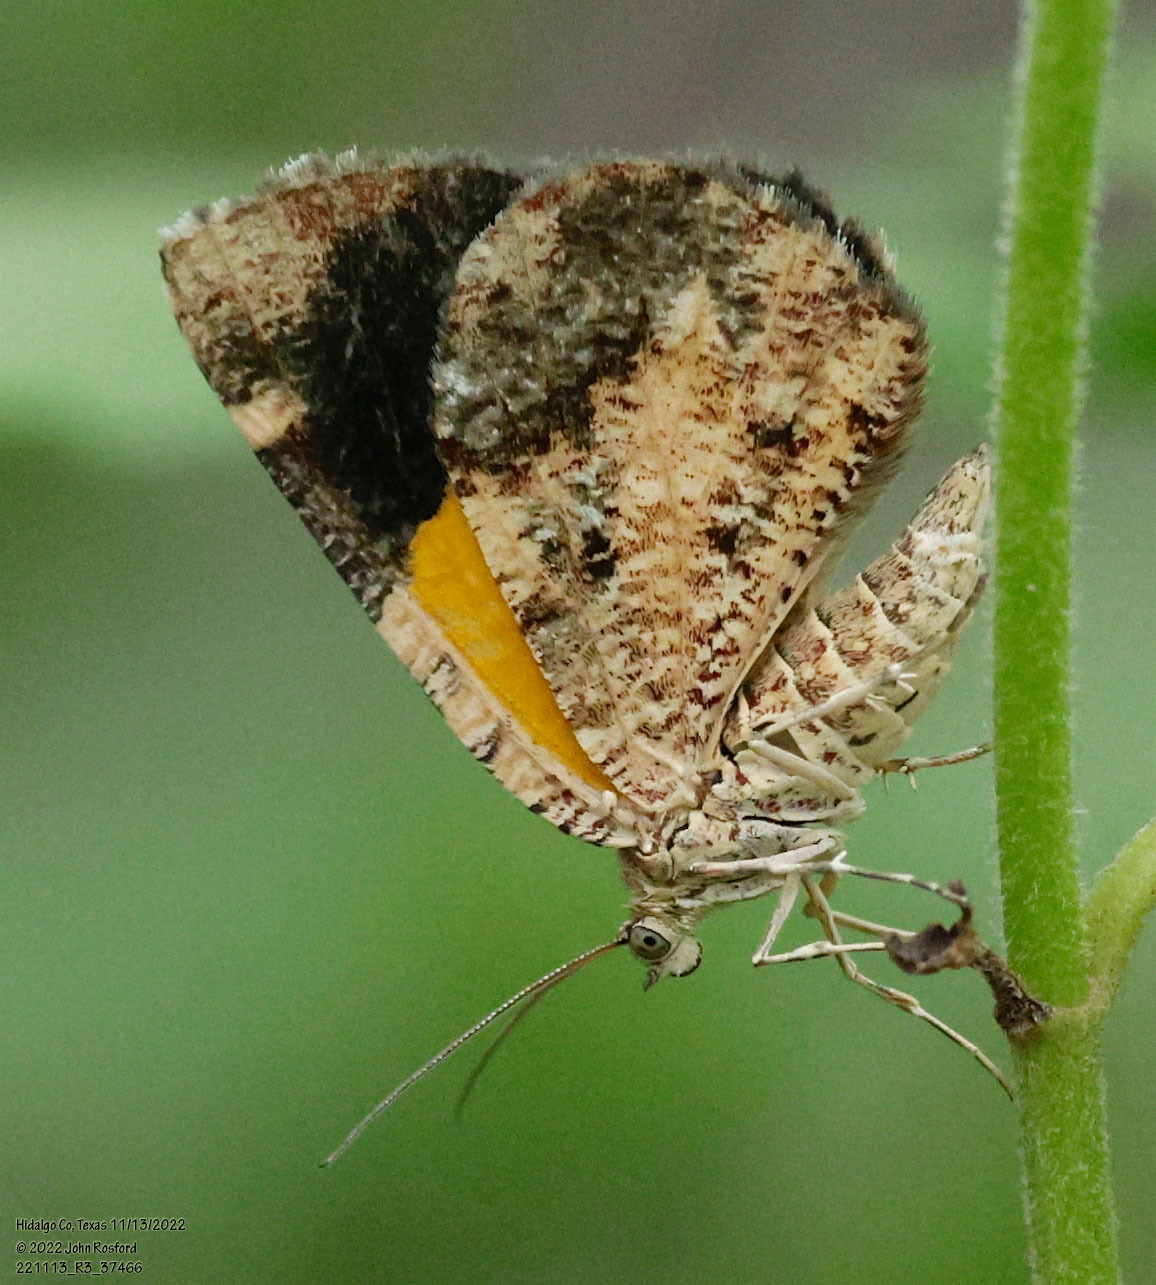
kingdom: Animalia
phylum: Arthropoda
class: Insecta
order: Lepidoptera
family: Geometridae
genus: Heterusia
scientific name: Heterusia atalantata
